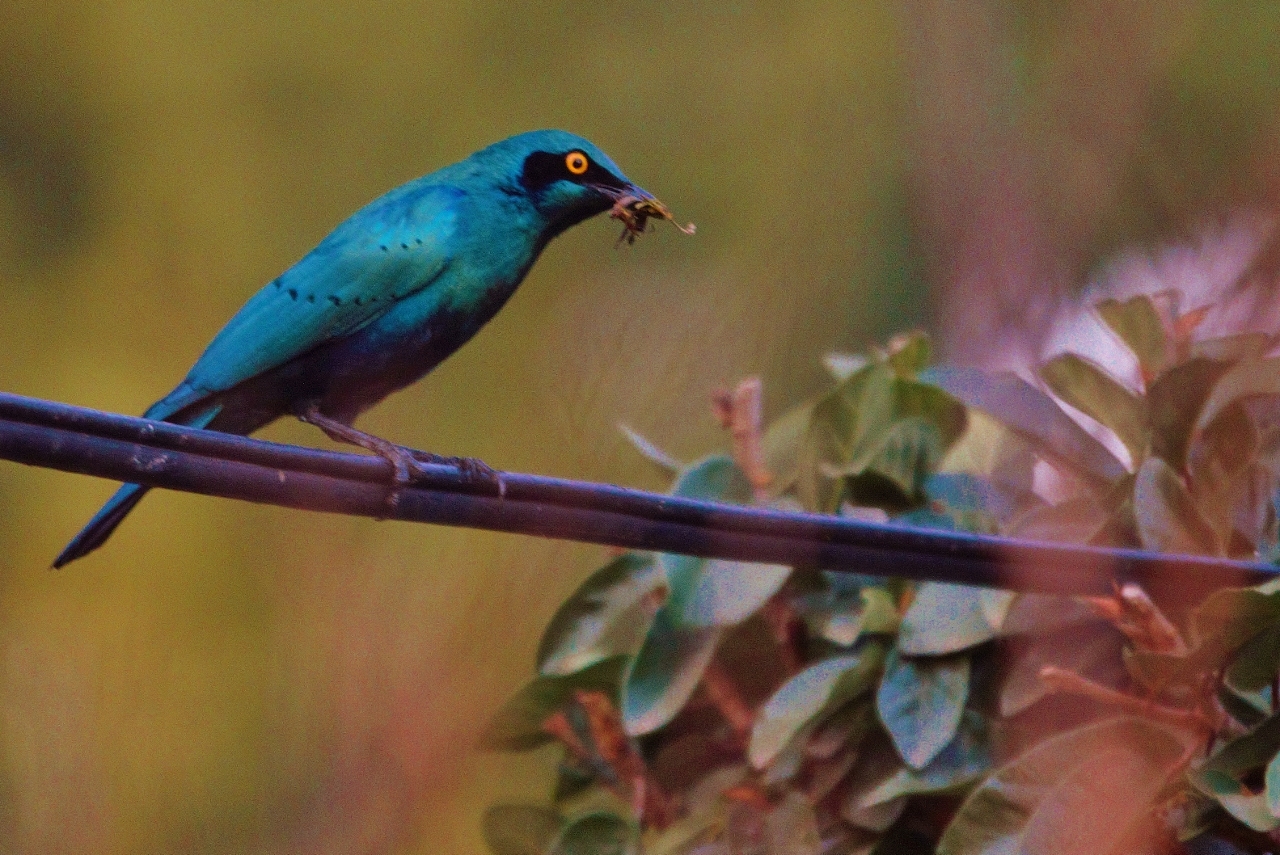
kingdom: Animalia
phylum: Chordata
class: Aves
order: Passeriformes
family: Sturnidae
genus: Lamprotornis
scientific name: Lamprotornis chalybaeus
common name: Greater blue-eared starling
